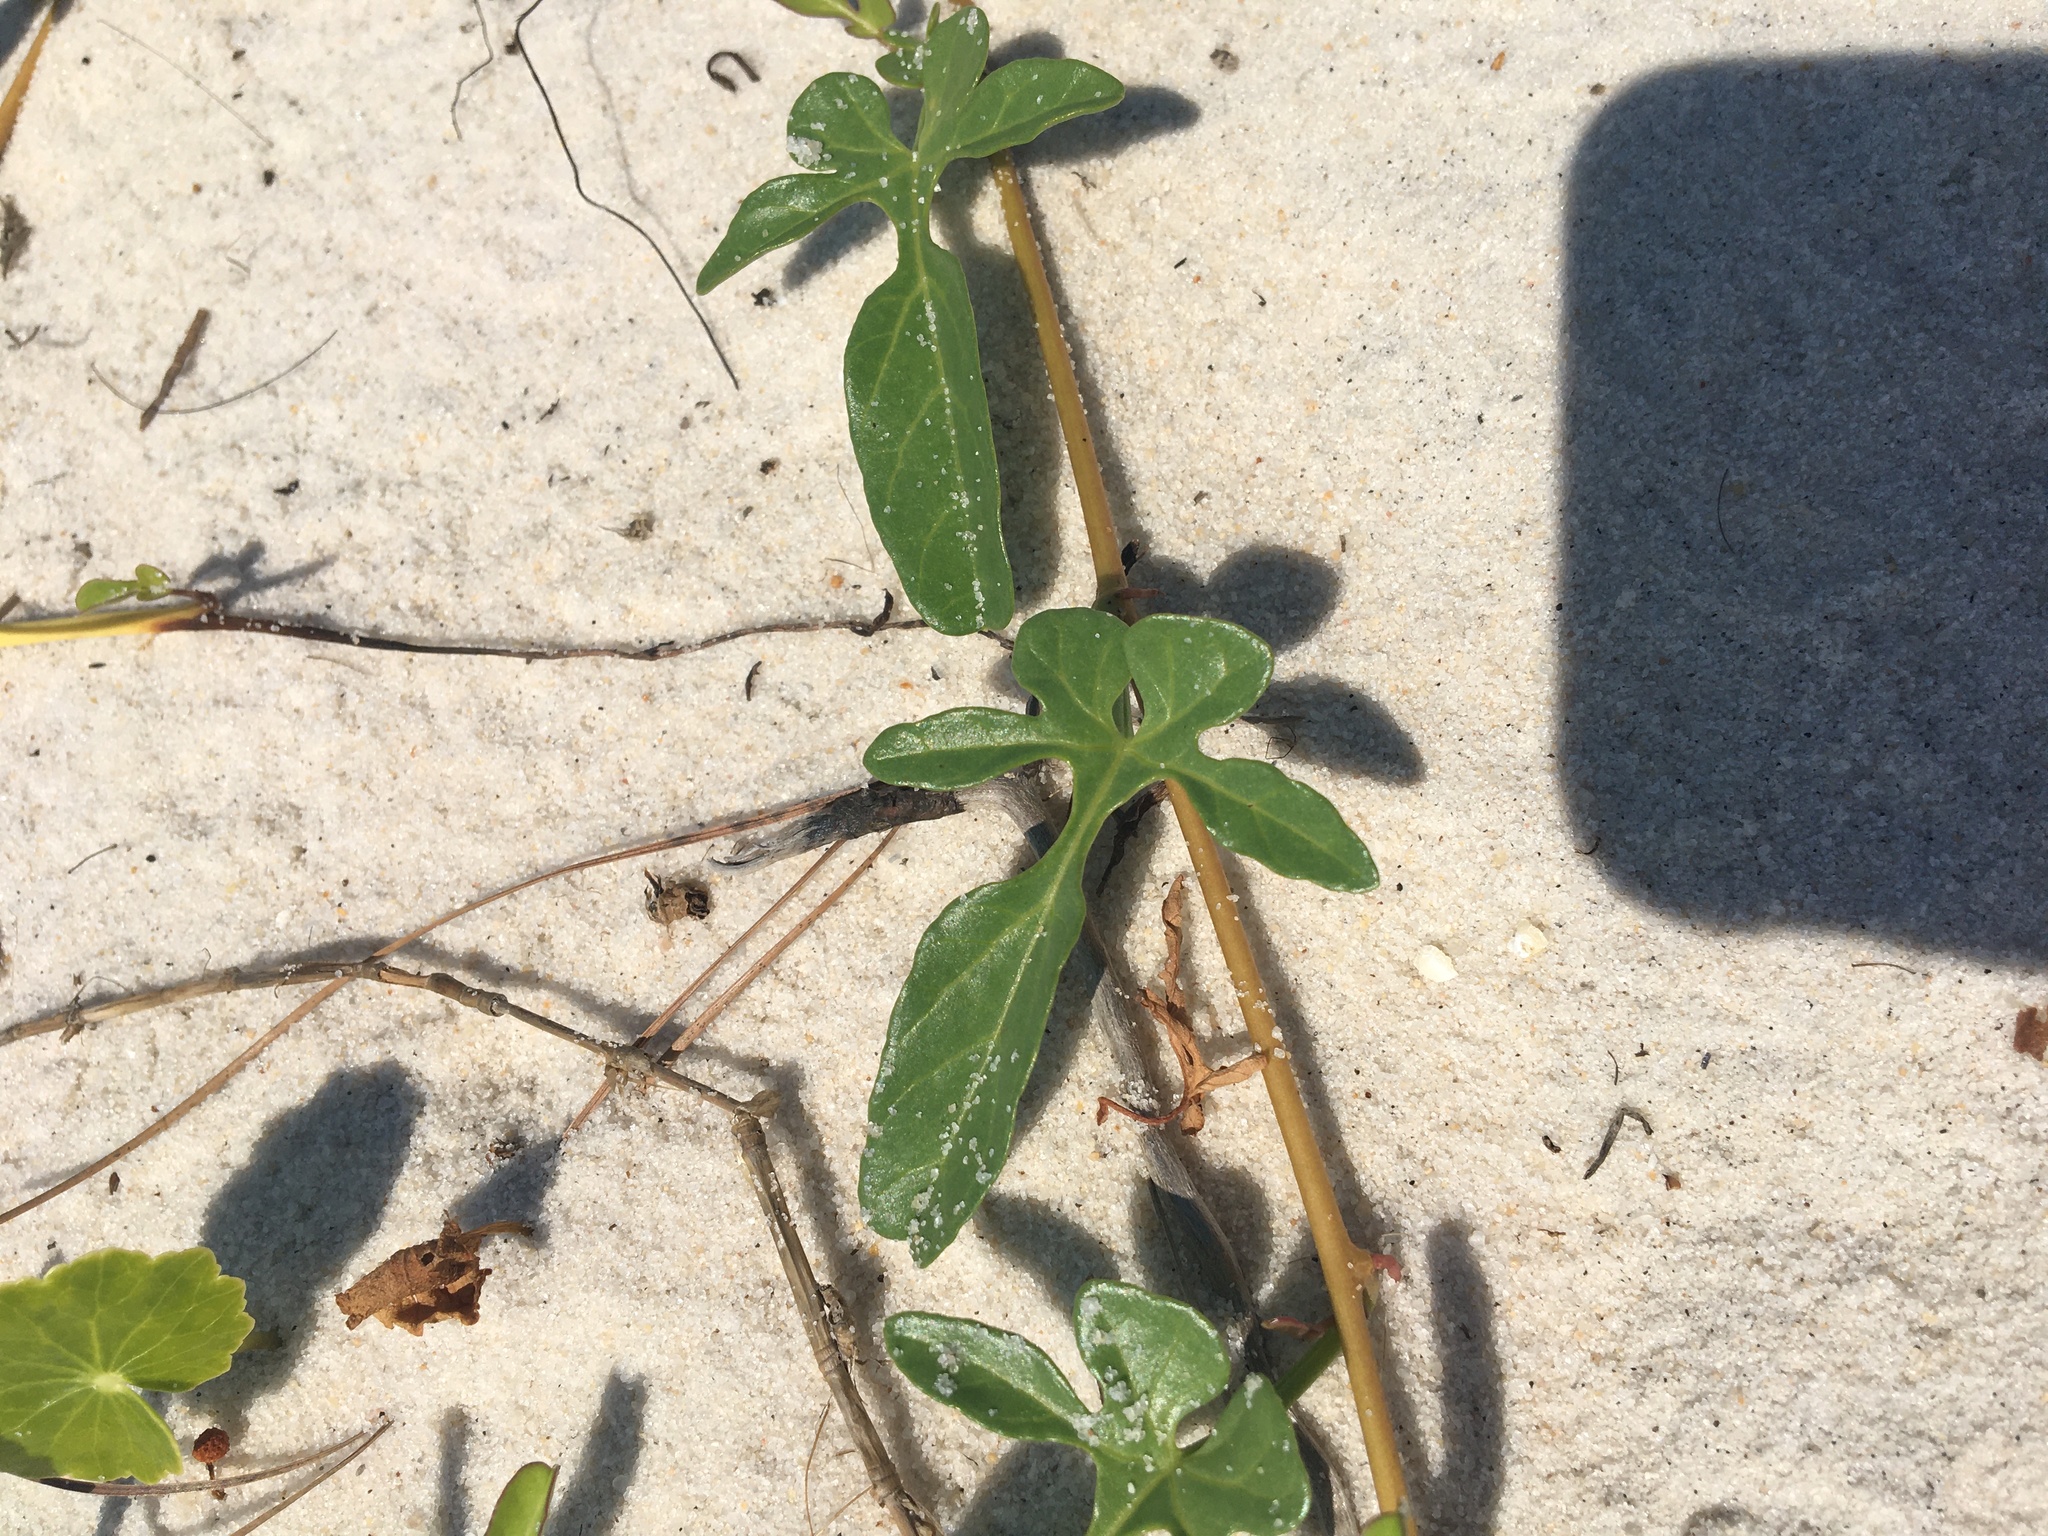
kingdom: Plantae
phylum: Tracheophyta
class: Magnoliopsida
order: Solanales
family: Convolvulaceae
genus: Ipomoea
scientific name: Ipomoea imperati
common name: Fiddle-leaf morning-glory
